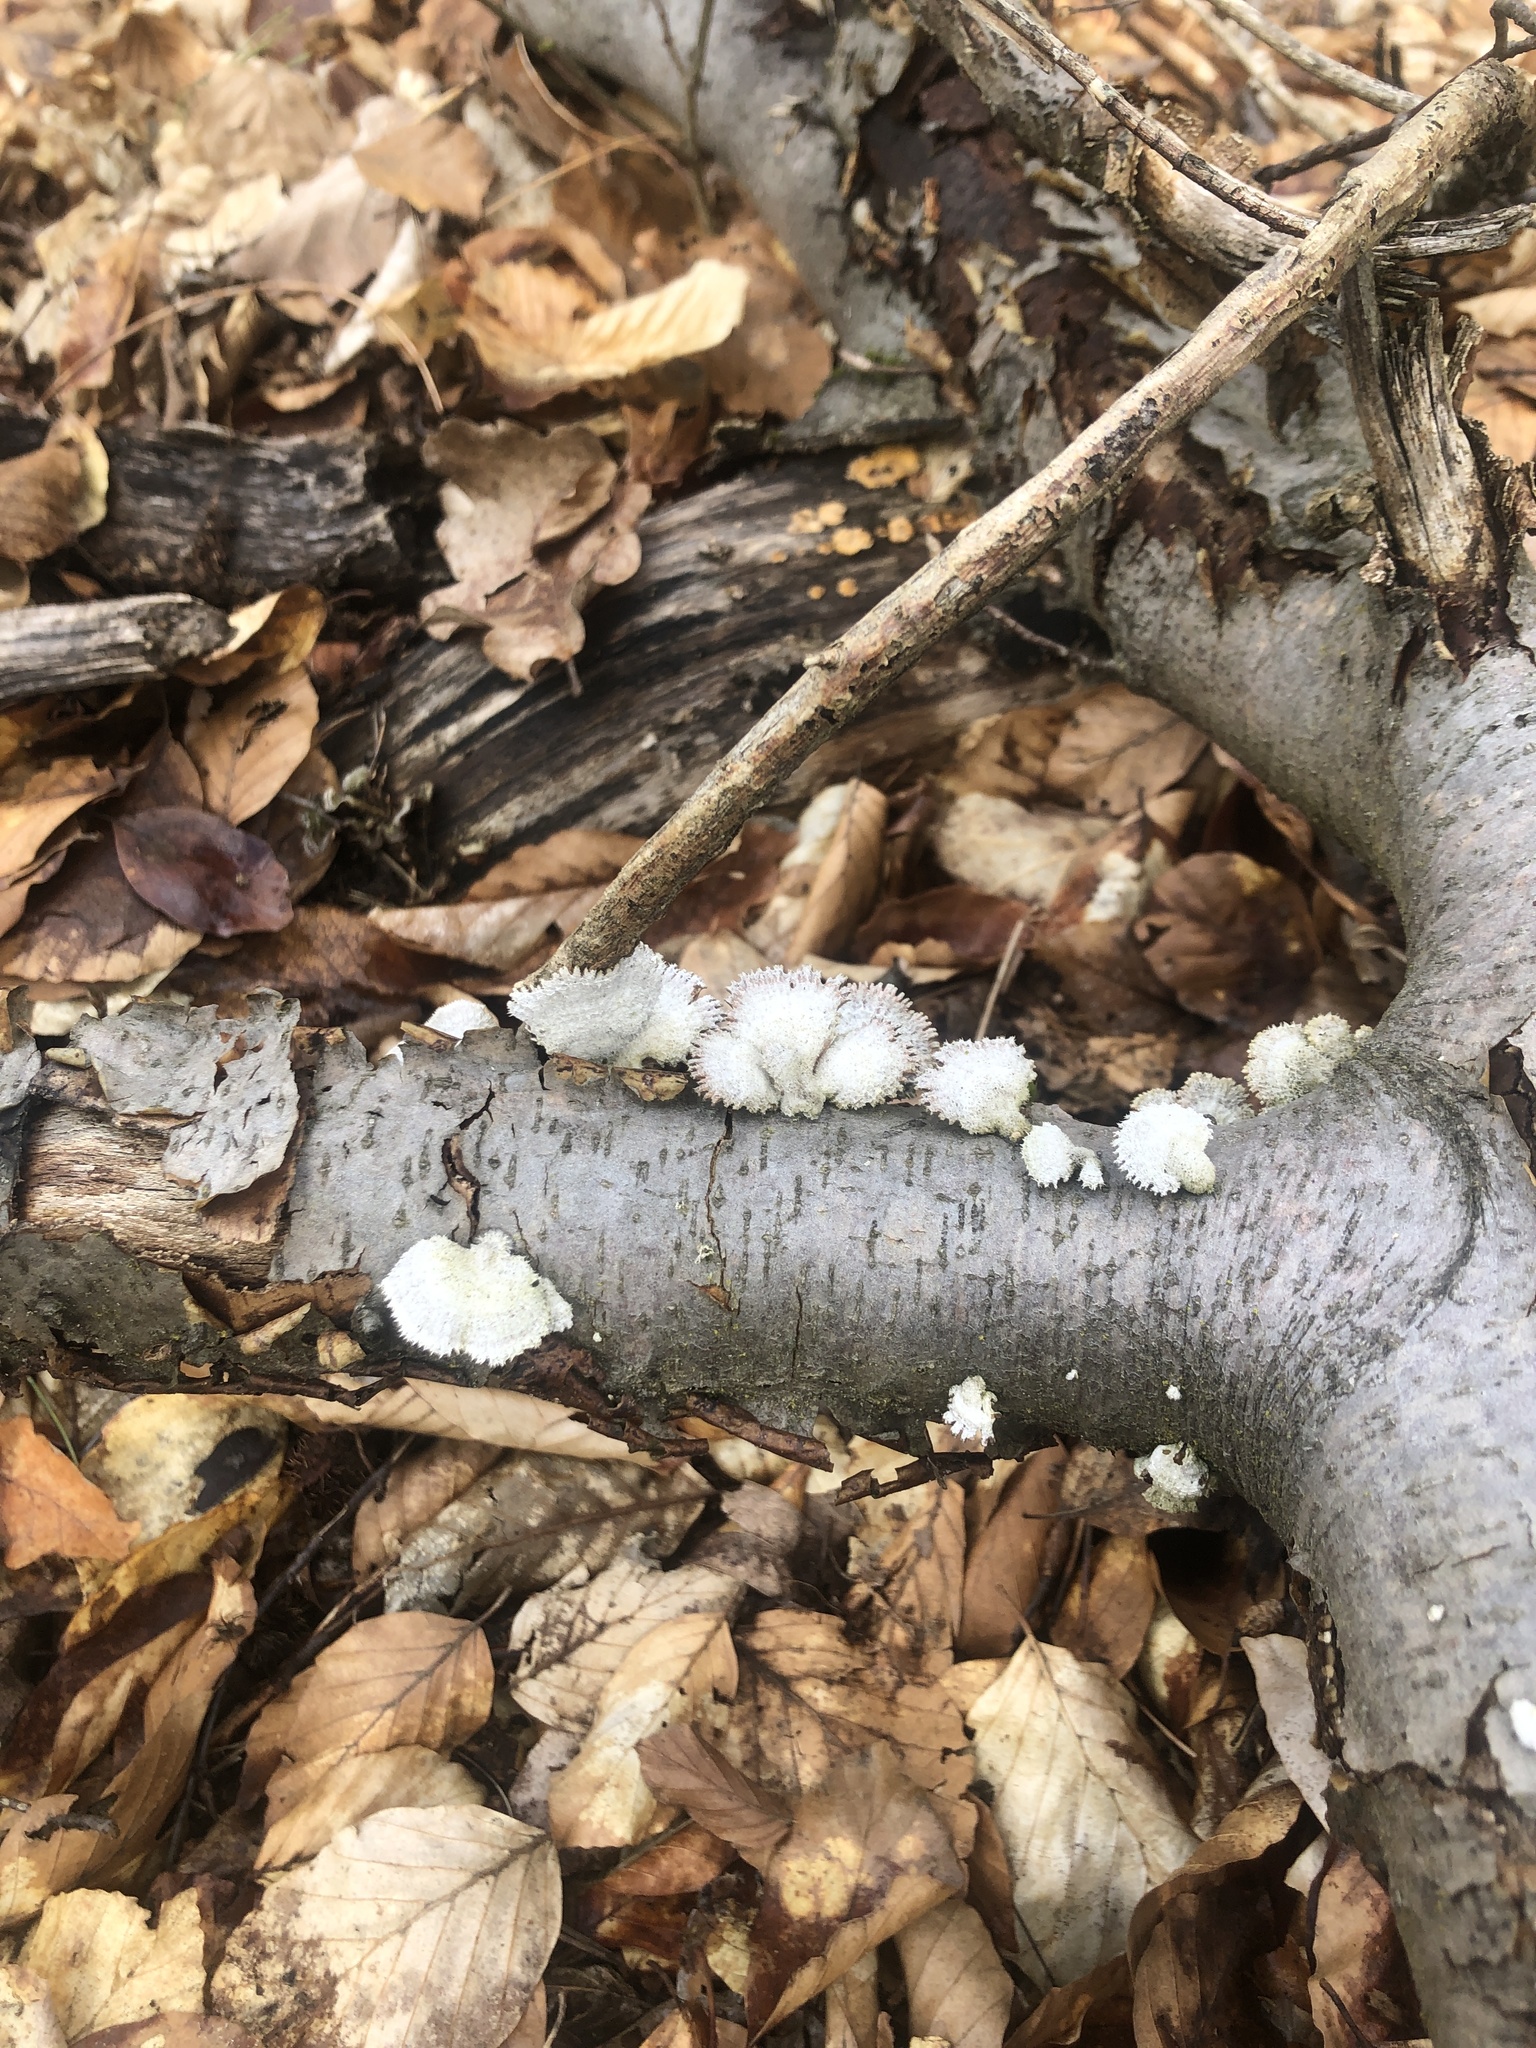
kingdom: Fungi
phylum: Basidiomycota
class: Agaricomycetes
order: Agaricales
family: Schizophyllaceae
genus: Schizophyllum
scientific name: Schizophyllum commune
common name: Common porecrust
